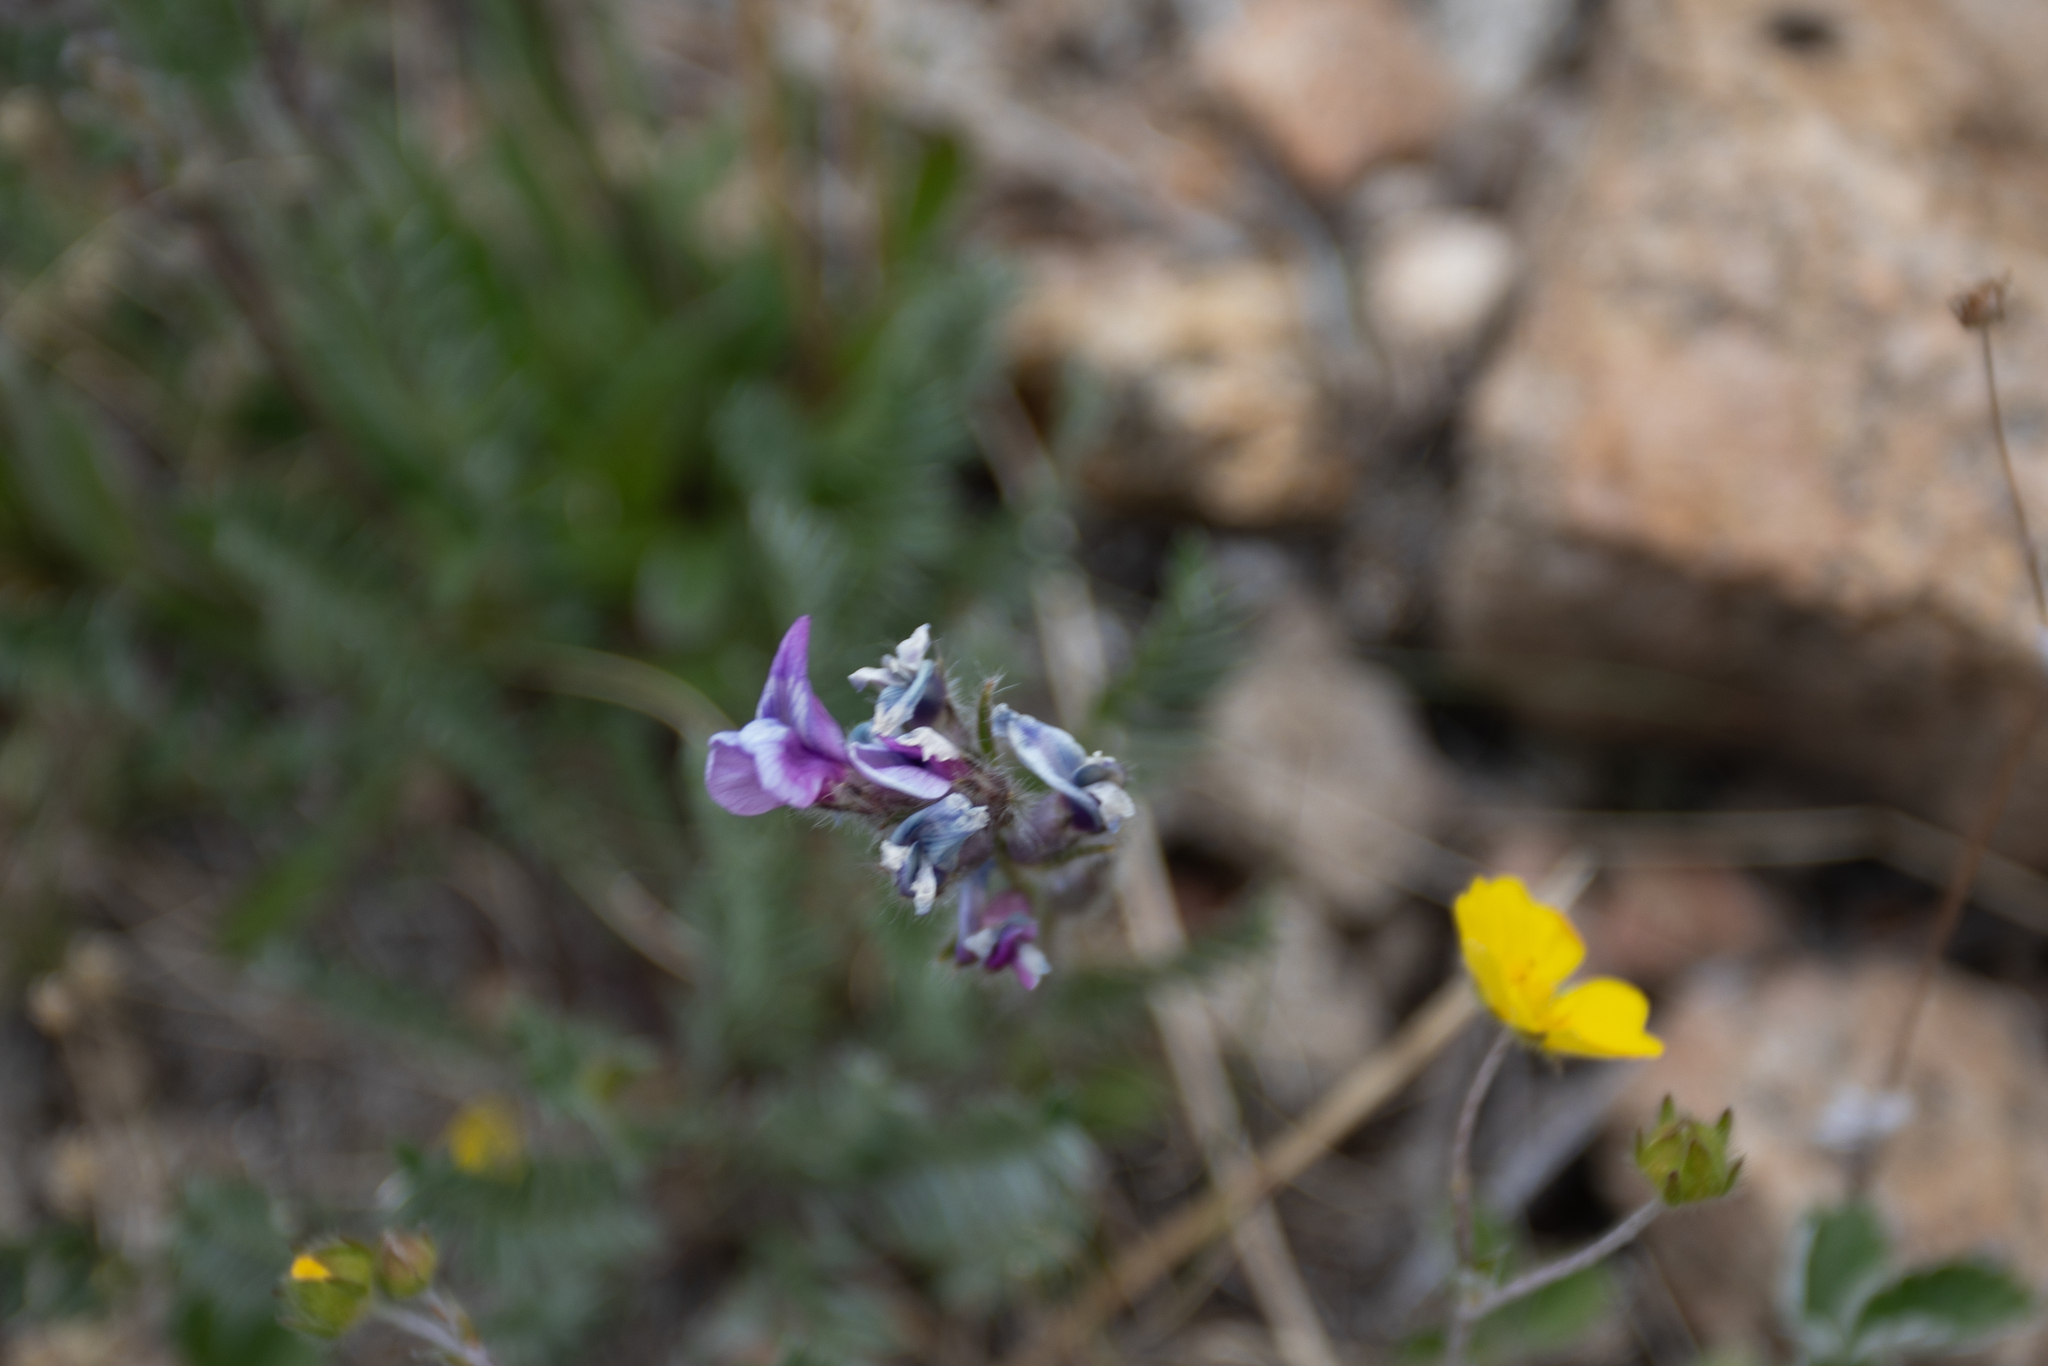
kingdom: Plantae
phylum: Tracheophyta
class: Magnoliopsida
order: Fabales
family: Fabaceae
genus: Oxytropis
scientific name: Oxytropis deflexa
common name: Stemmed oxytrope
